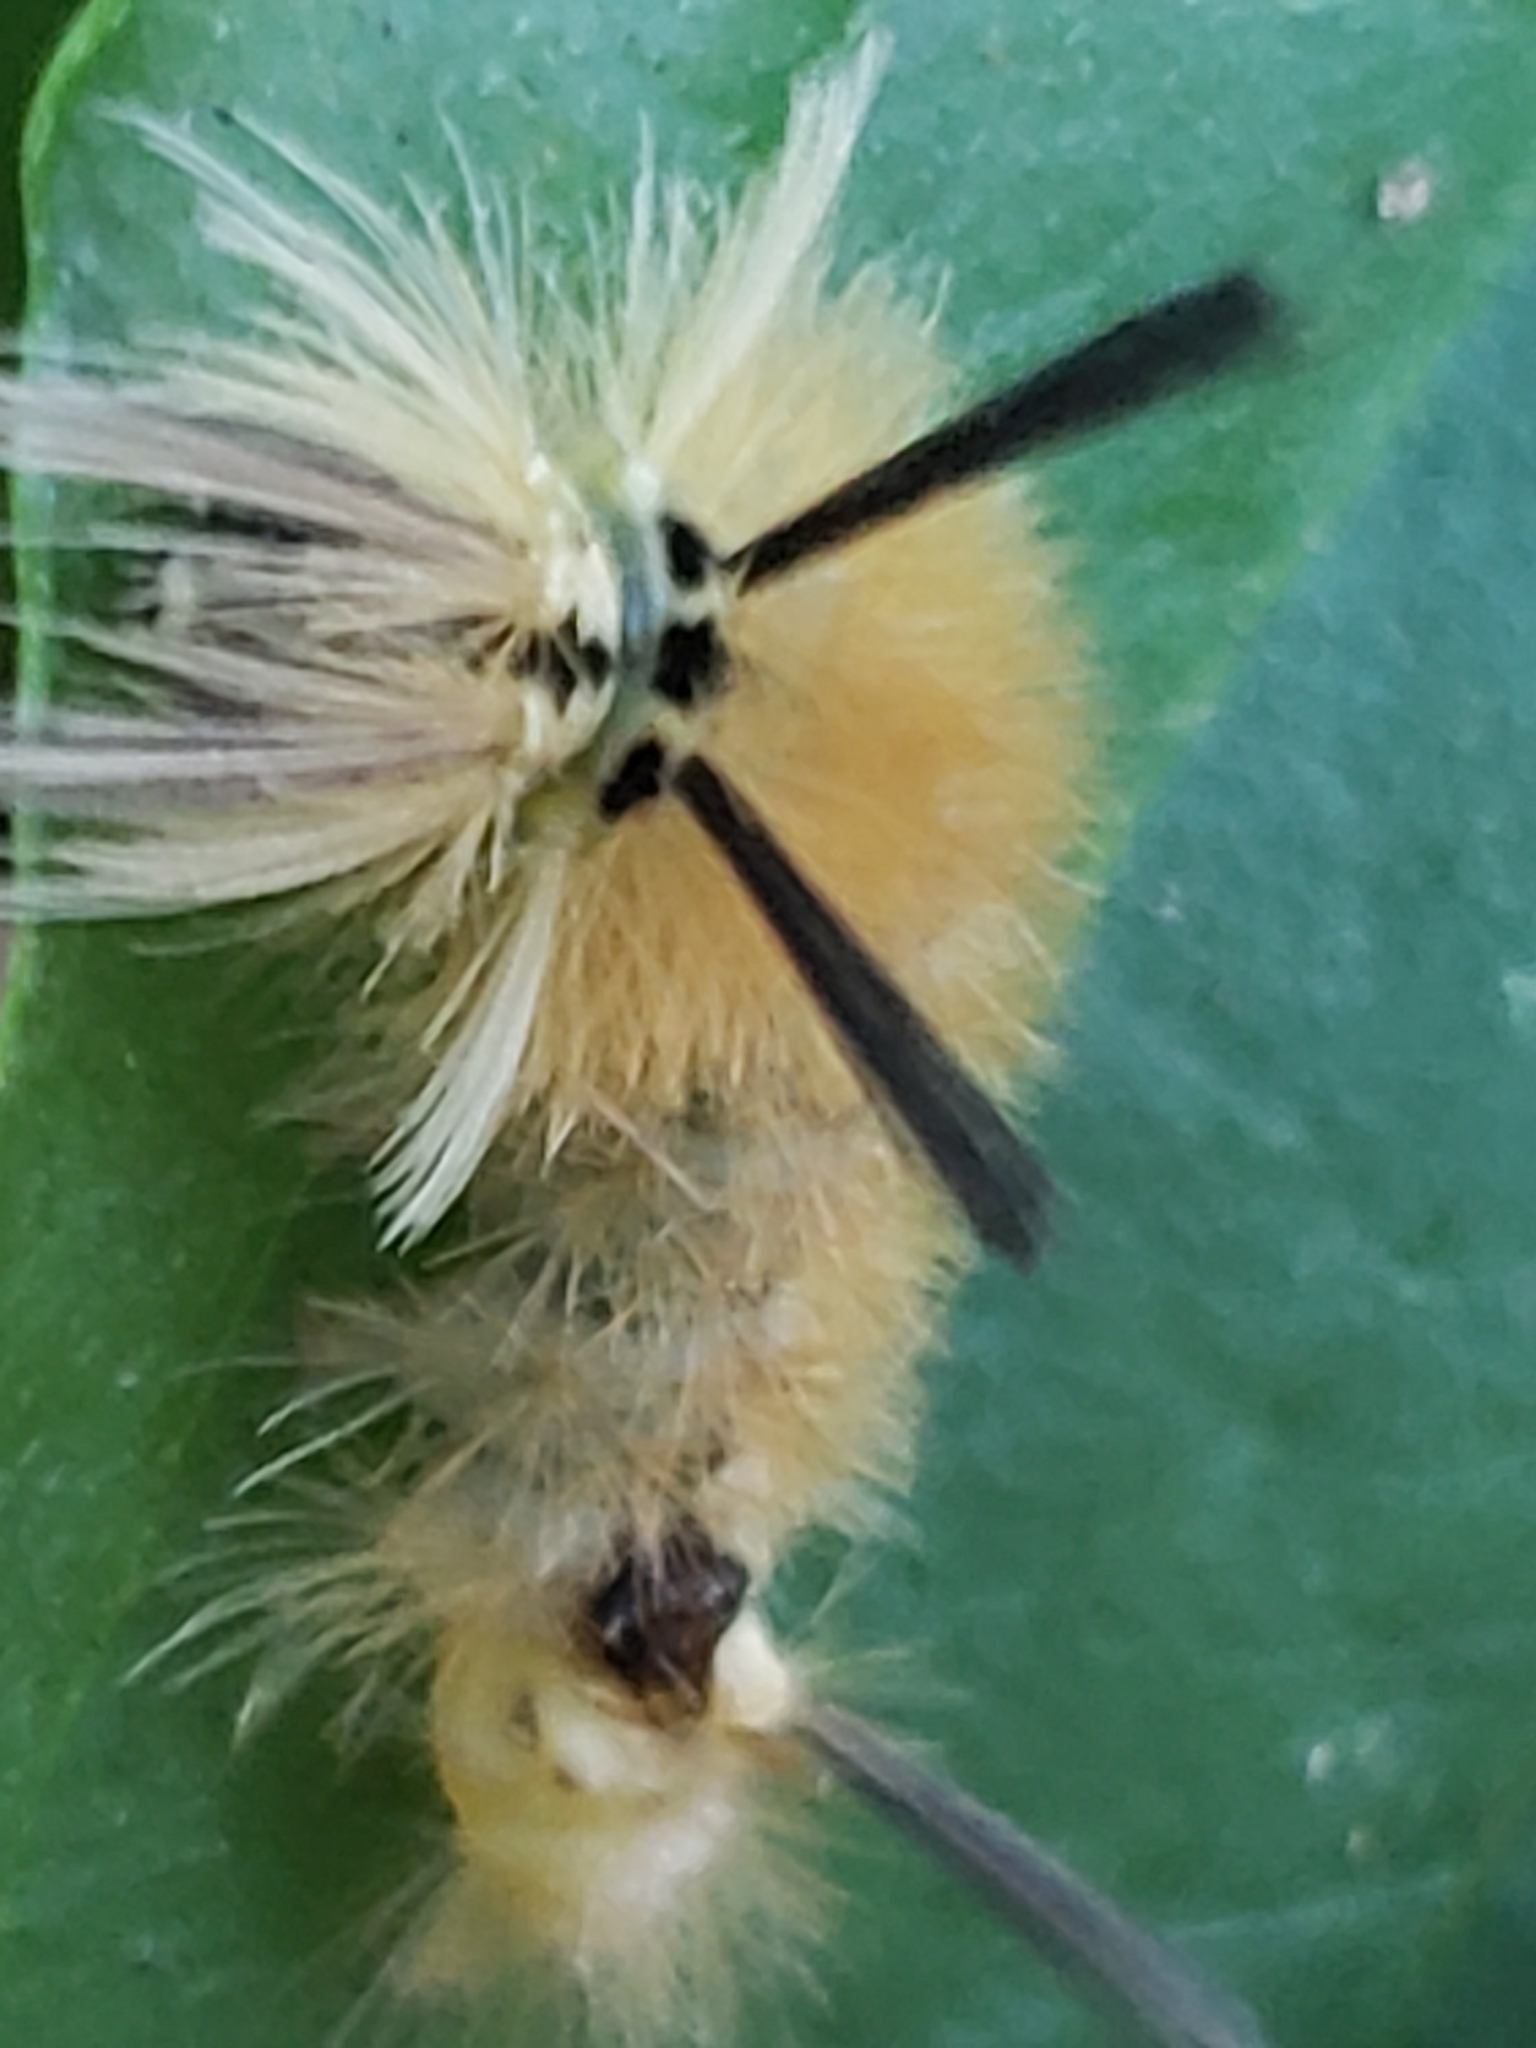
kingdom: Animalia
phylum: Arthropoda
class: Insecta
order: Lepidoptera
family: Erebidae
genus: Halysidota
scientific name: Halysidota tessellaris
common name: Banded tussock moth
